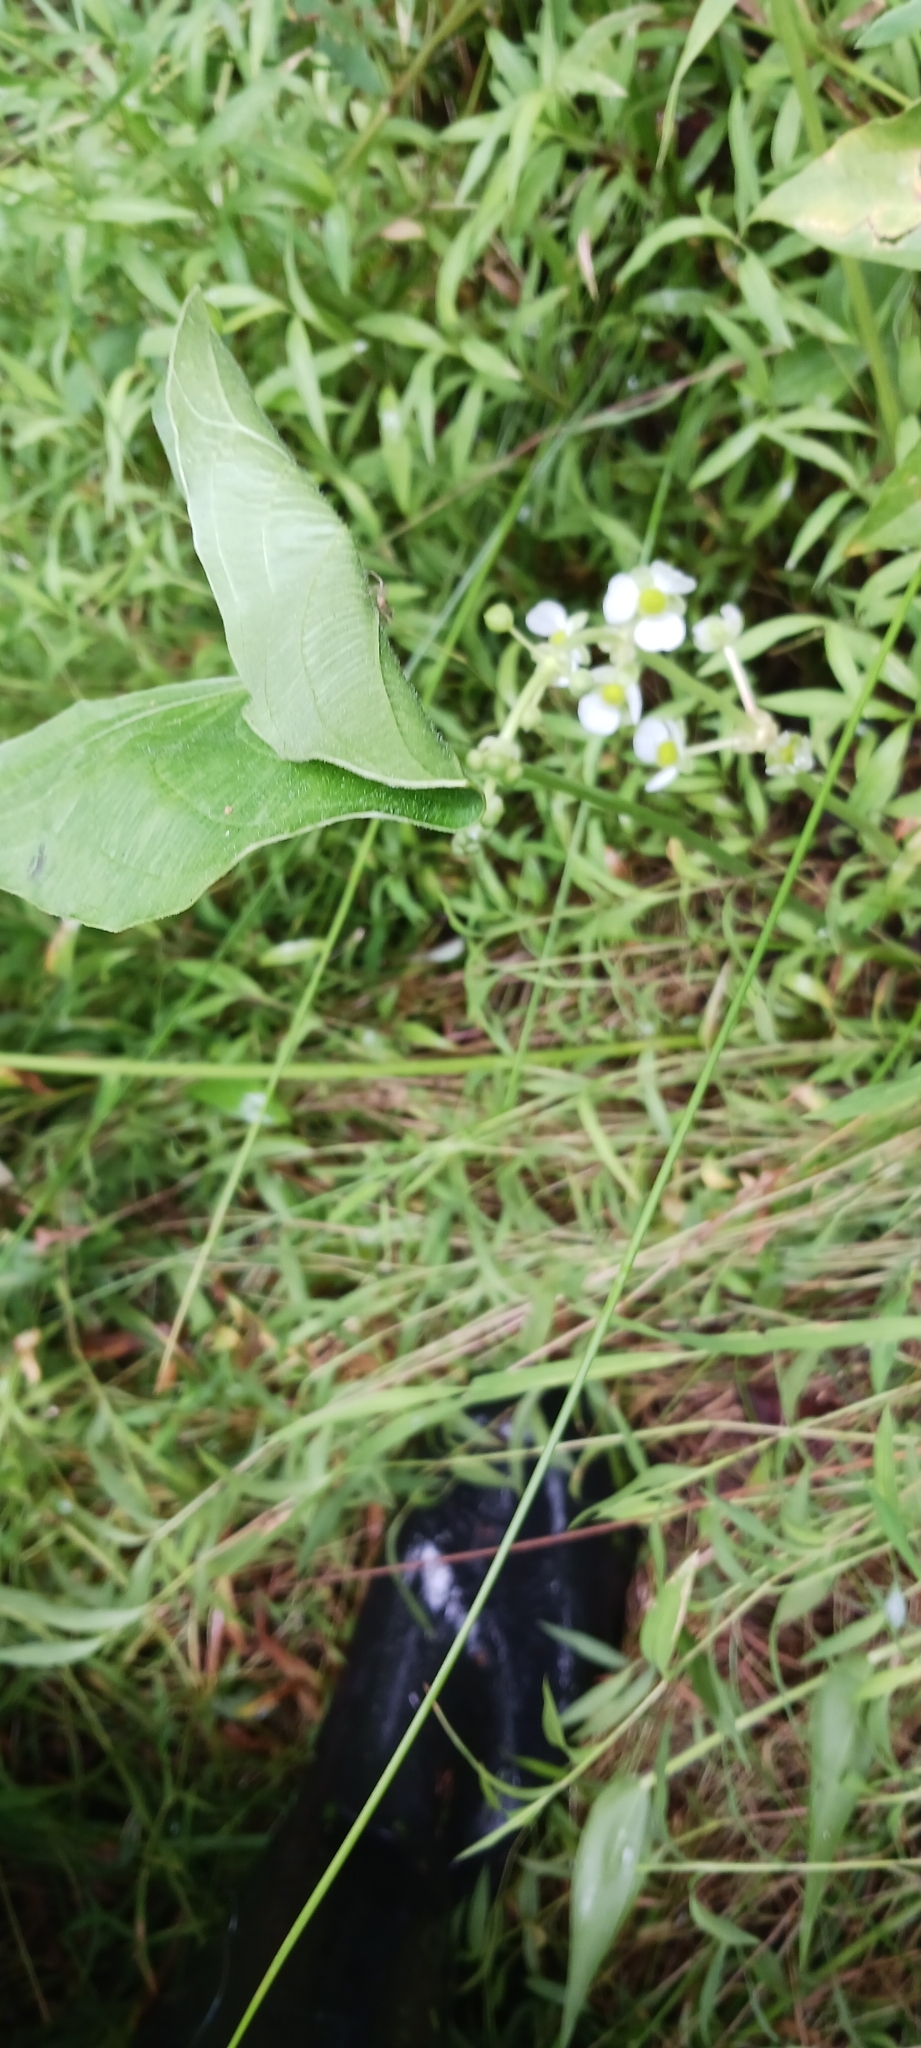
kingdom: Plantae
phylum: Tracheophyta
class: Liliopsida
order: Alismatales
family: Alismataceae
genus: Sagittaria
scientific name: Sagittaria latifolia
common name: Duck-potato
